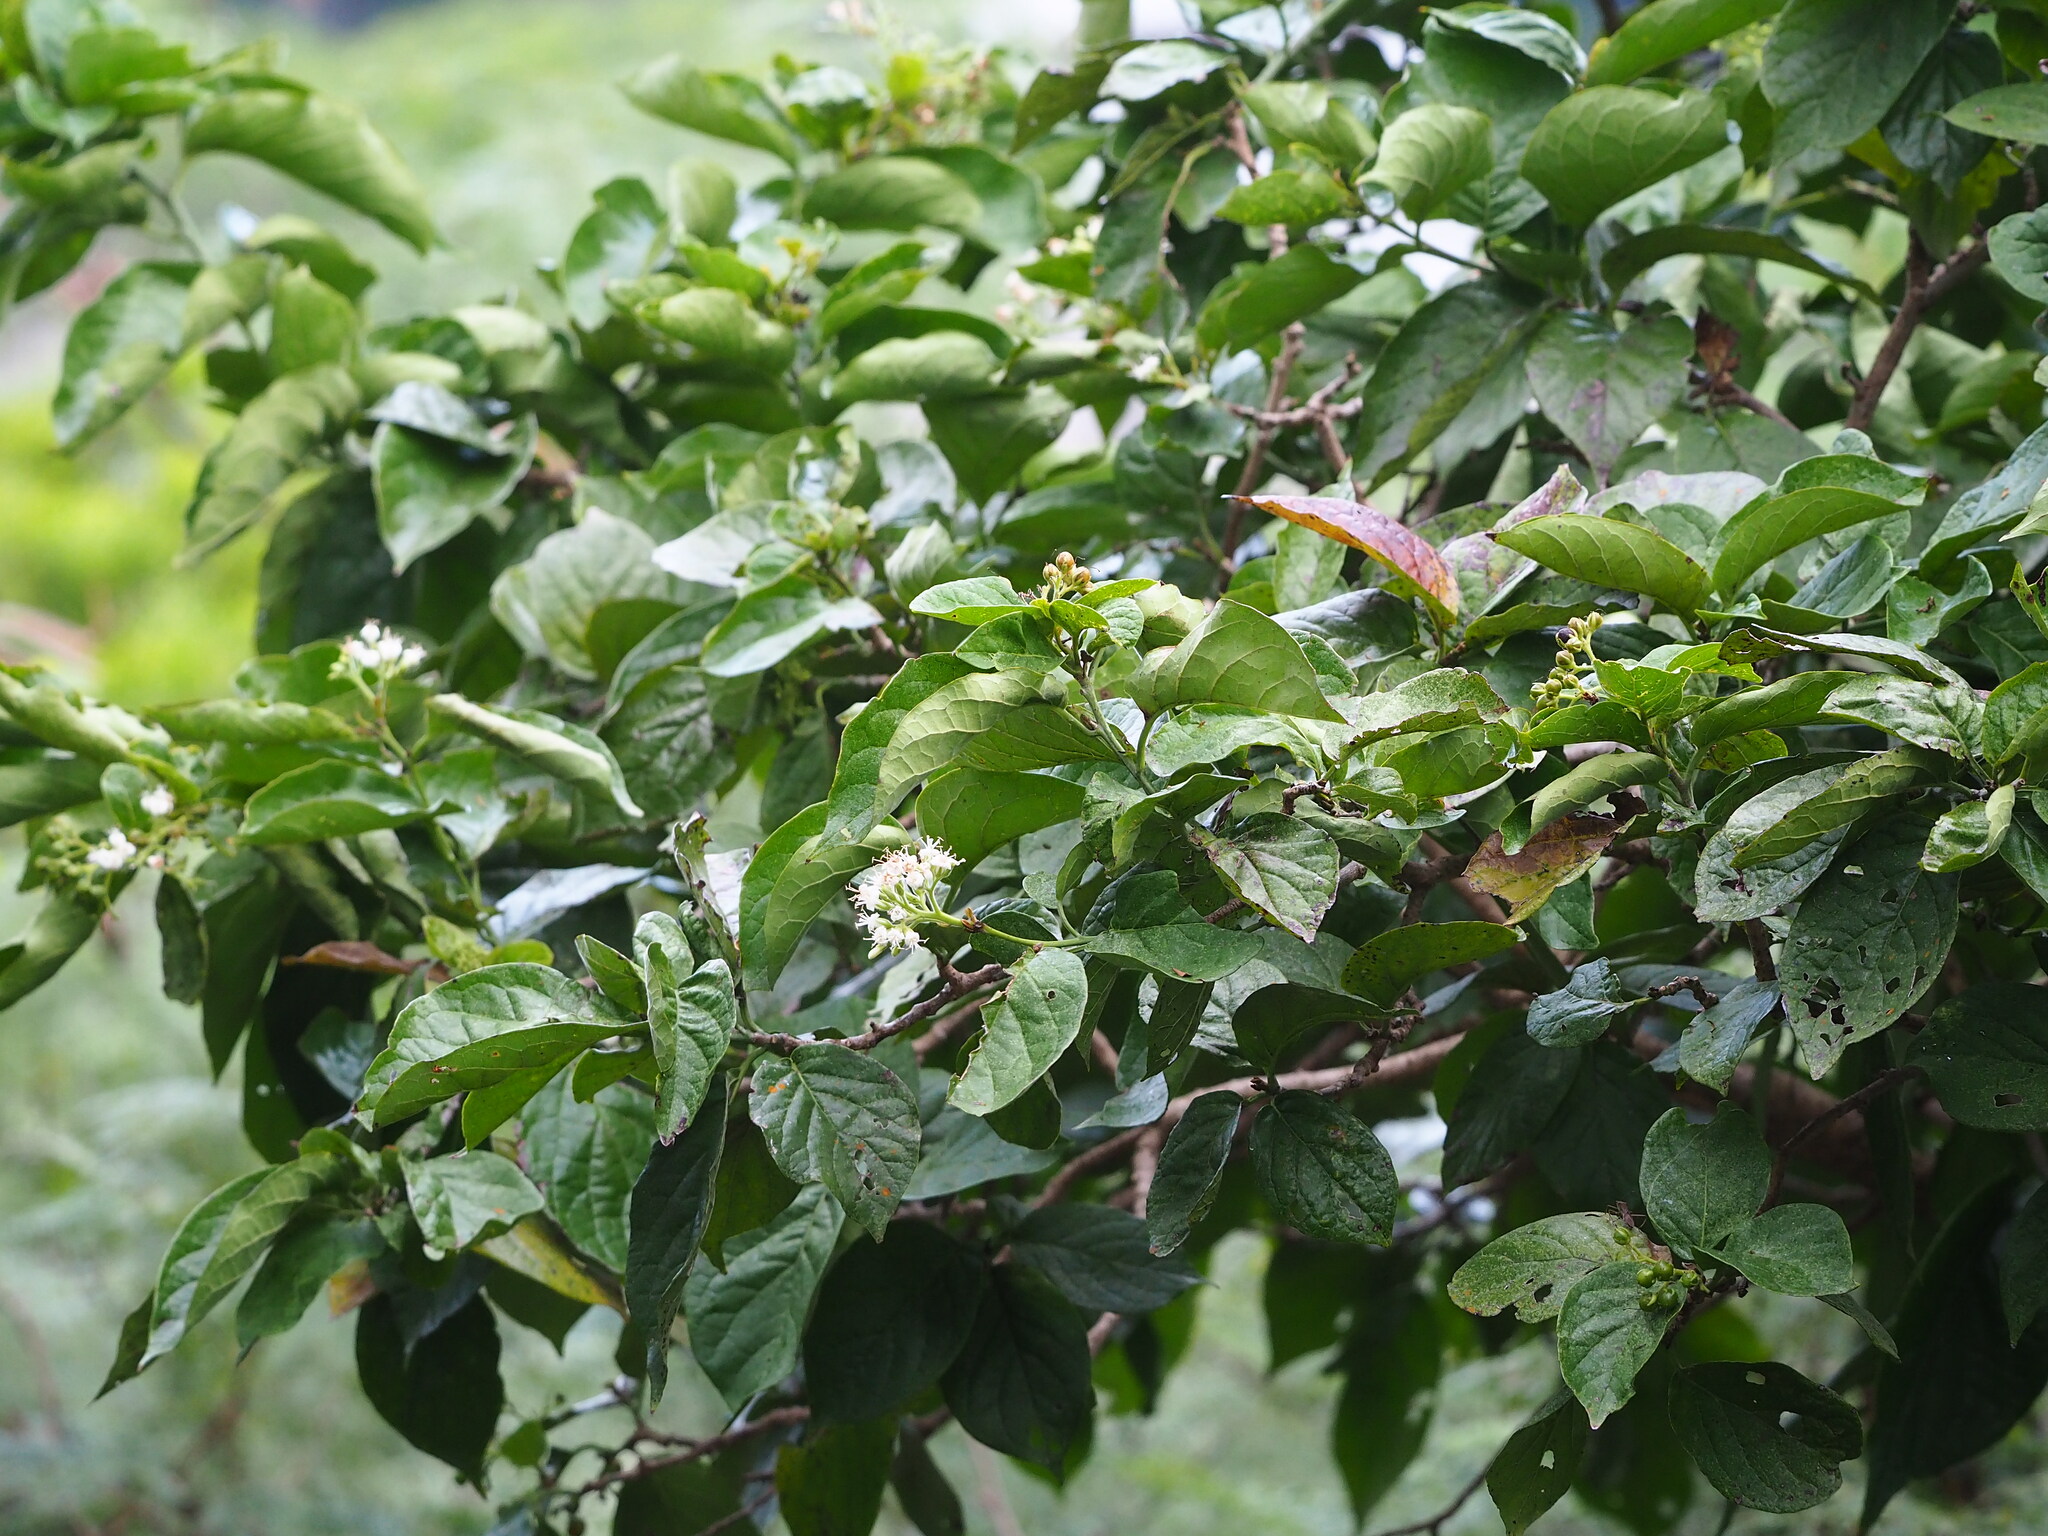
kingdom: Plantae
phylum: Tracheophyta
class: Magnoliopsida
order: Boraginales
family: Ehretiaceae
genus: Ehretia
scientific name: Ehretia resinosa
